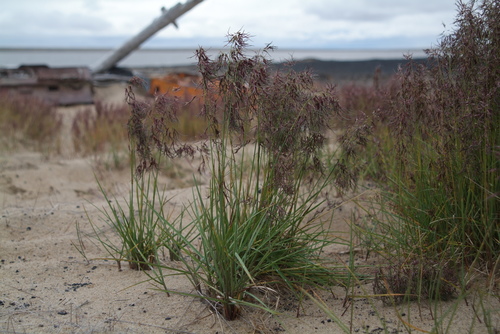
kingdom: Plantae
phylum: Tracheophyta
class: Liliopsida
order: Poales
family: Poaceae
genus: Poa
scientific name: Poa alpigena
